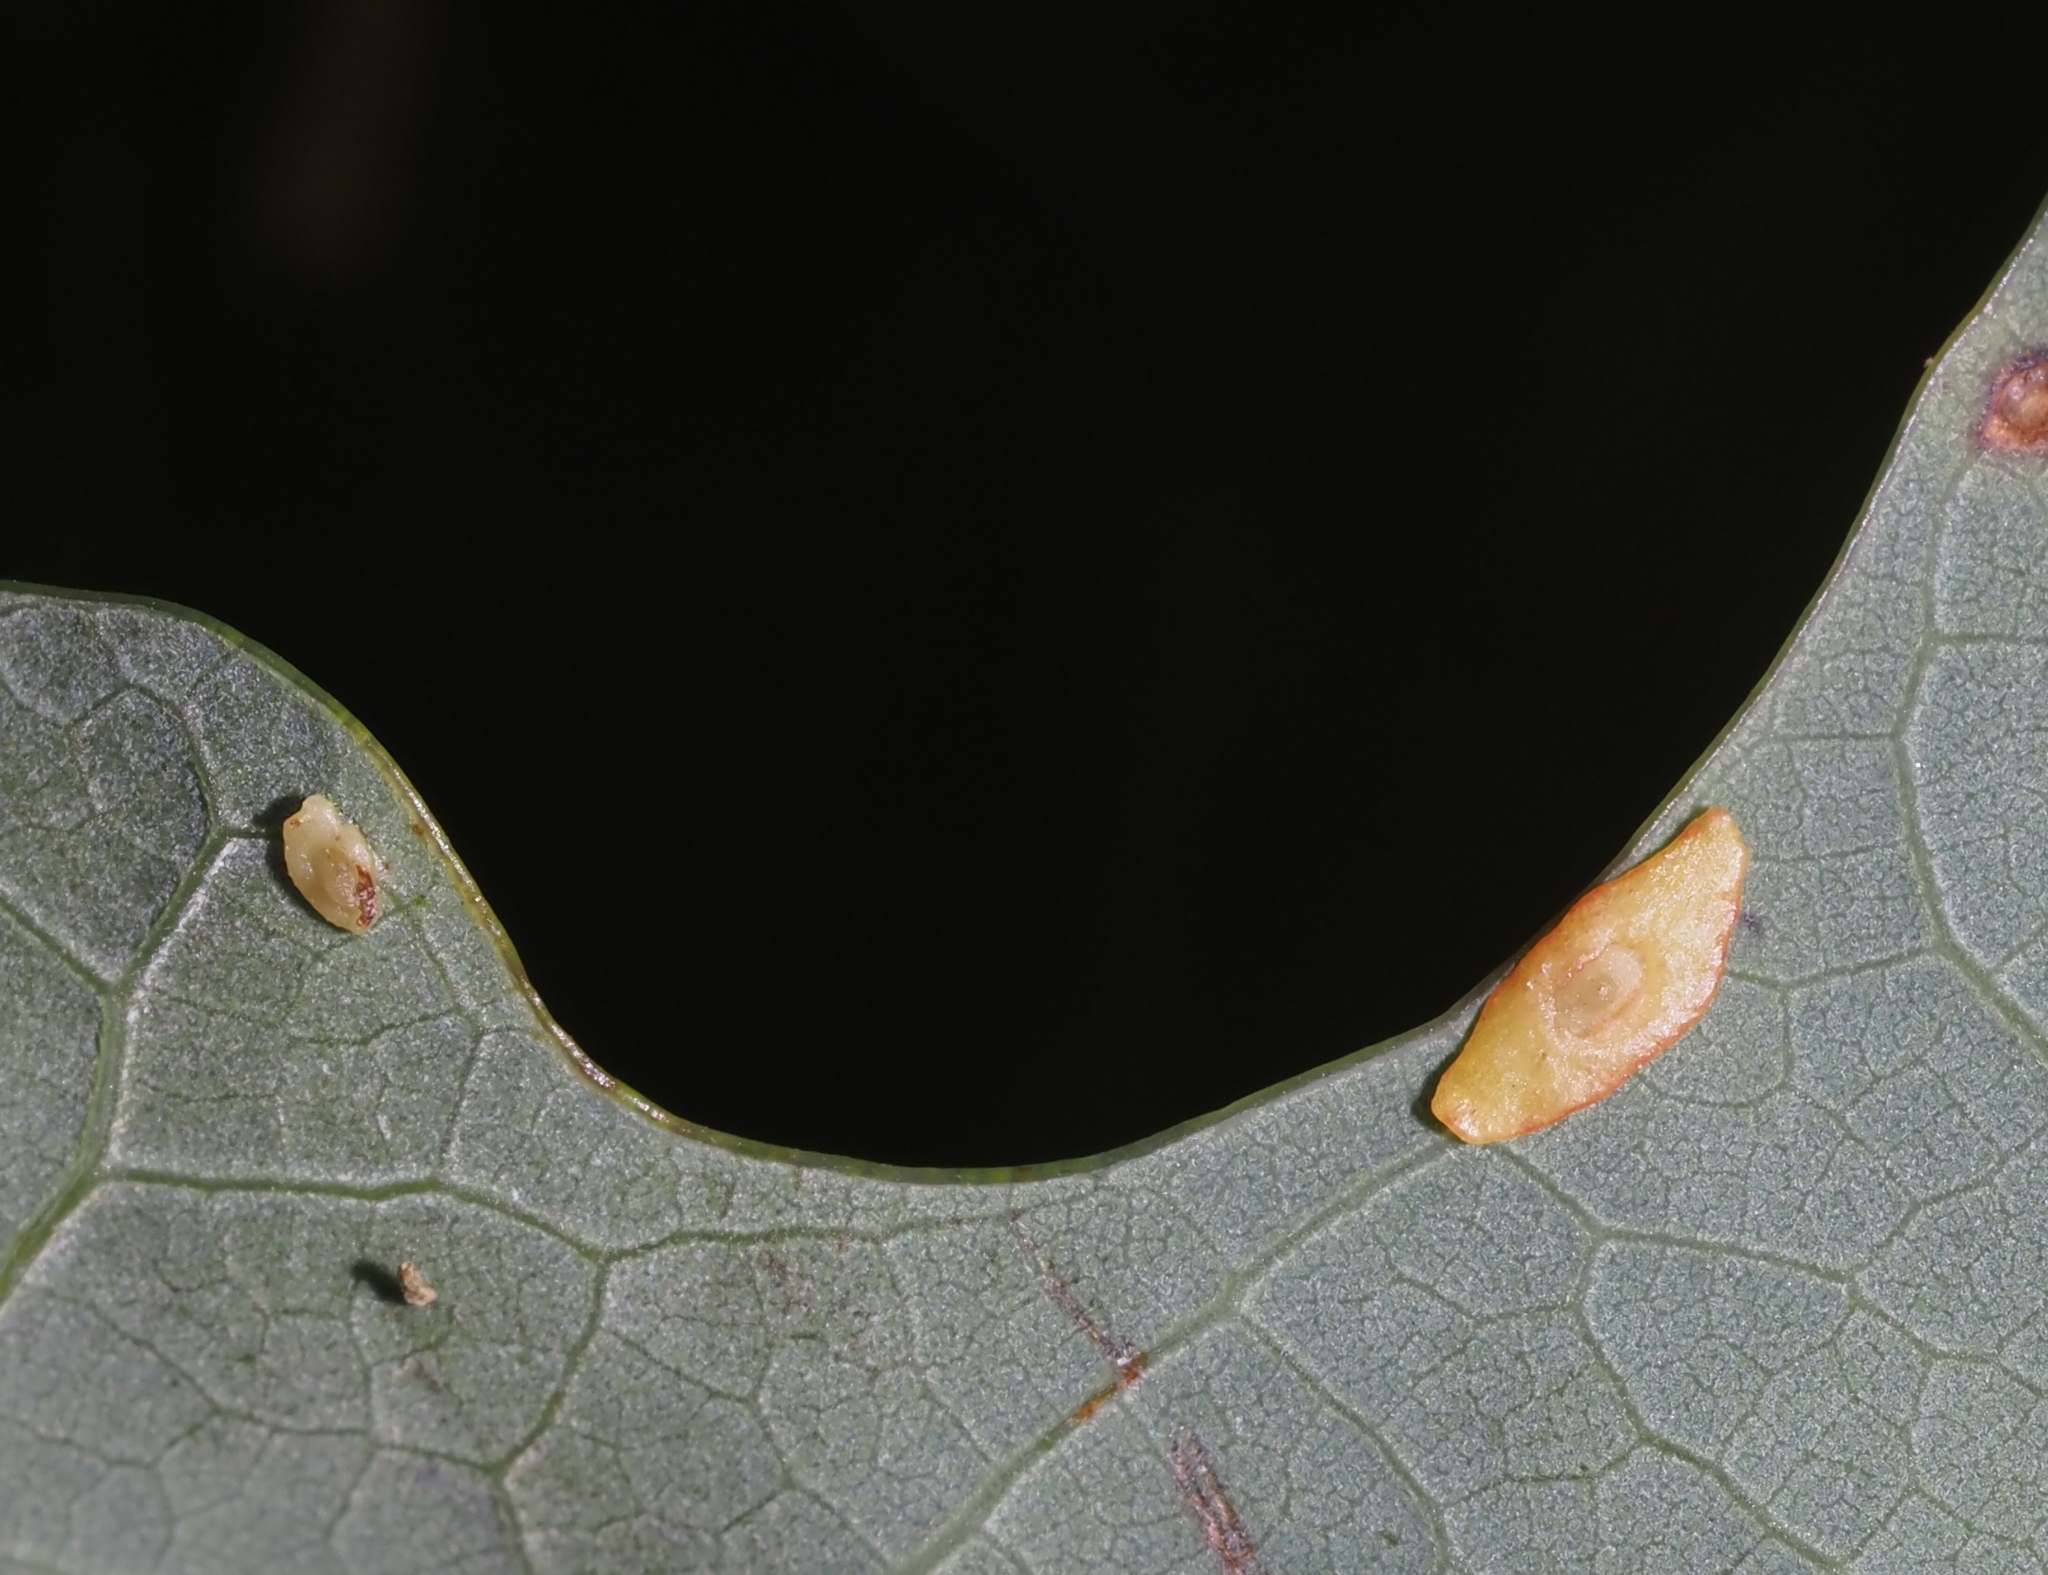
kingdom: Animalia
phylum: Arthropoda
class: Insecta
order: Hymenoptera
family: Cynipidae
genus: Phylloteras
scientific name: Phylloteras
